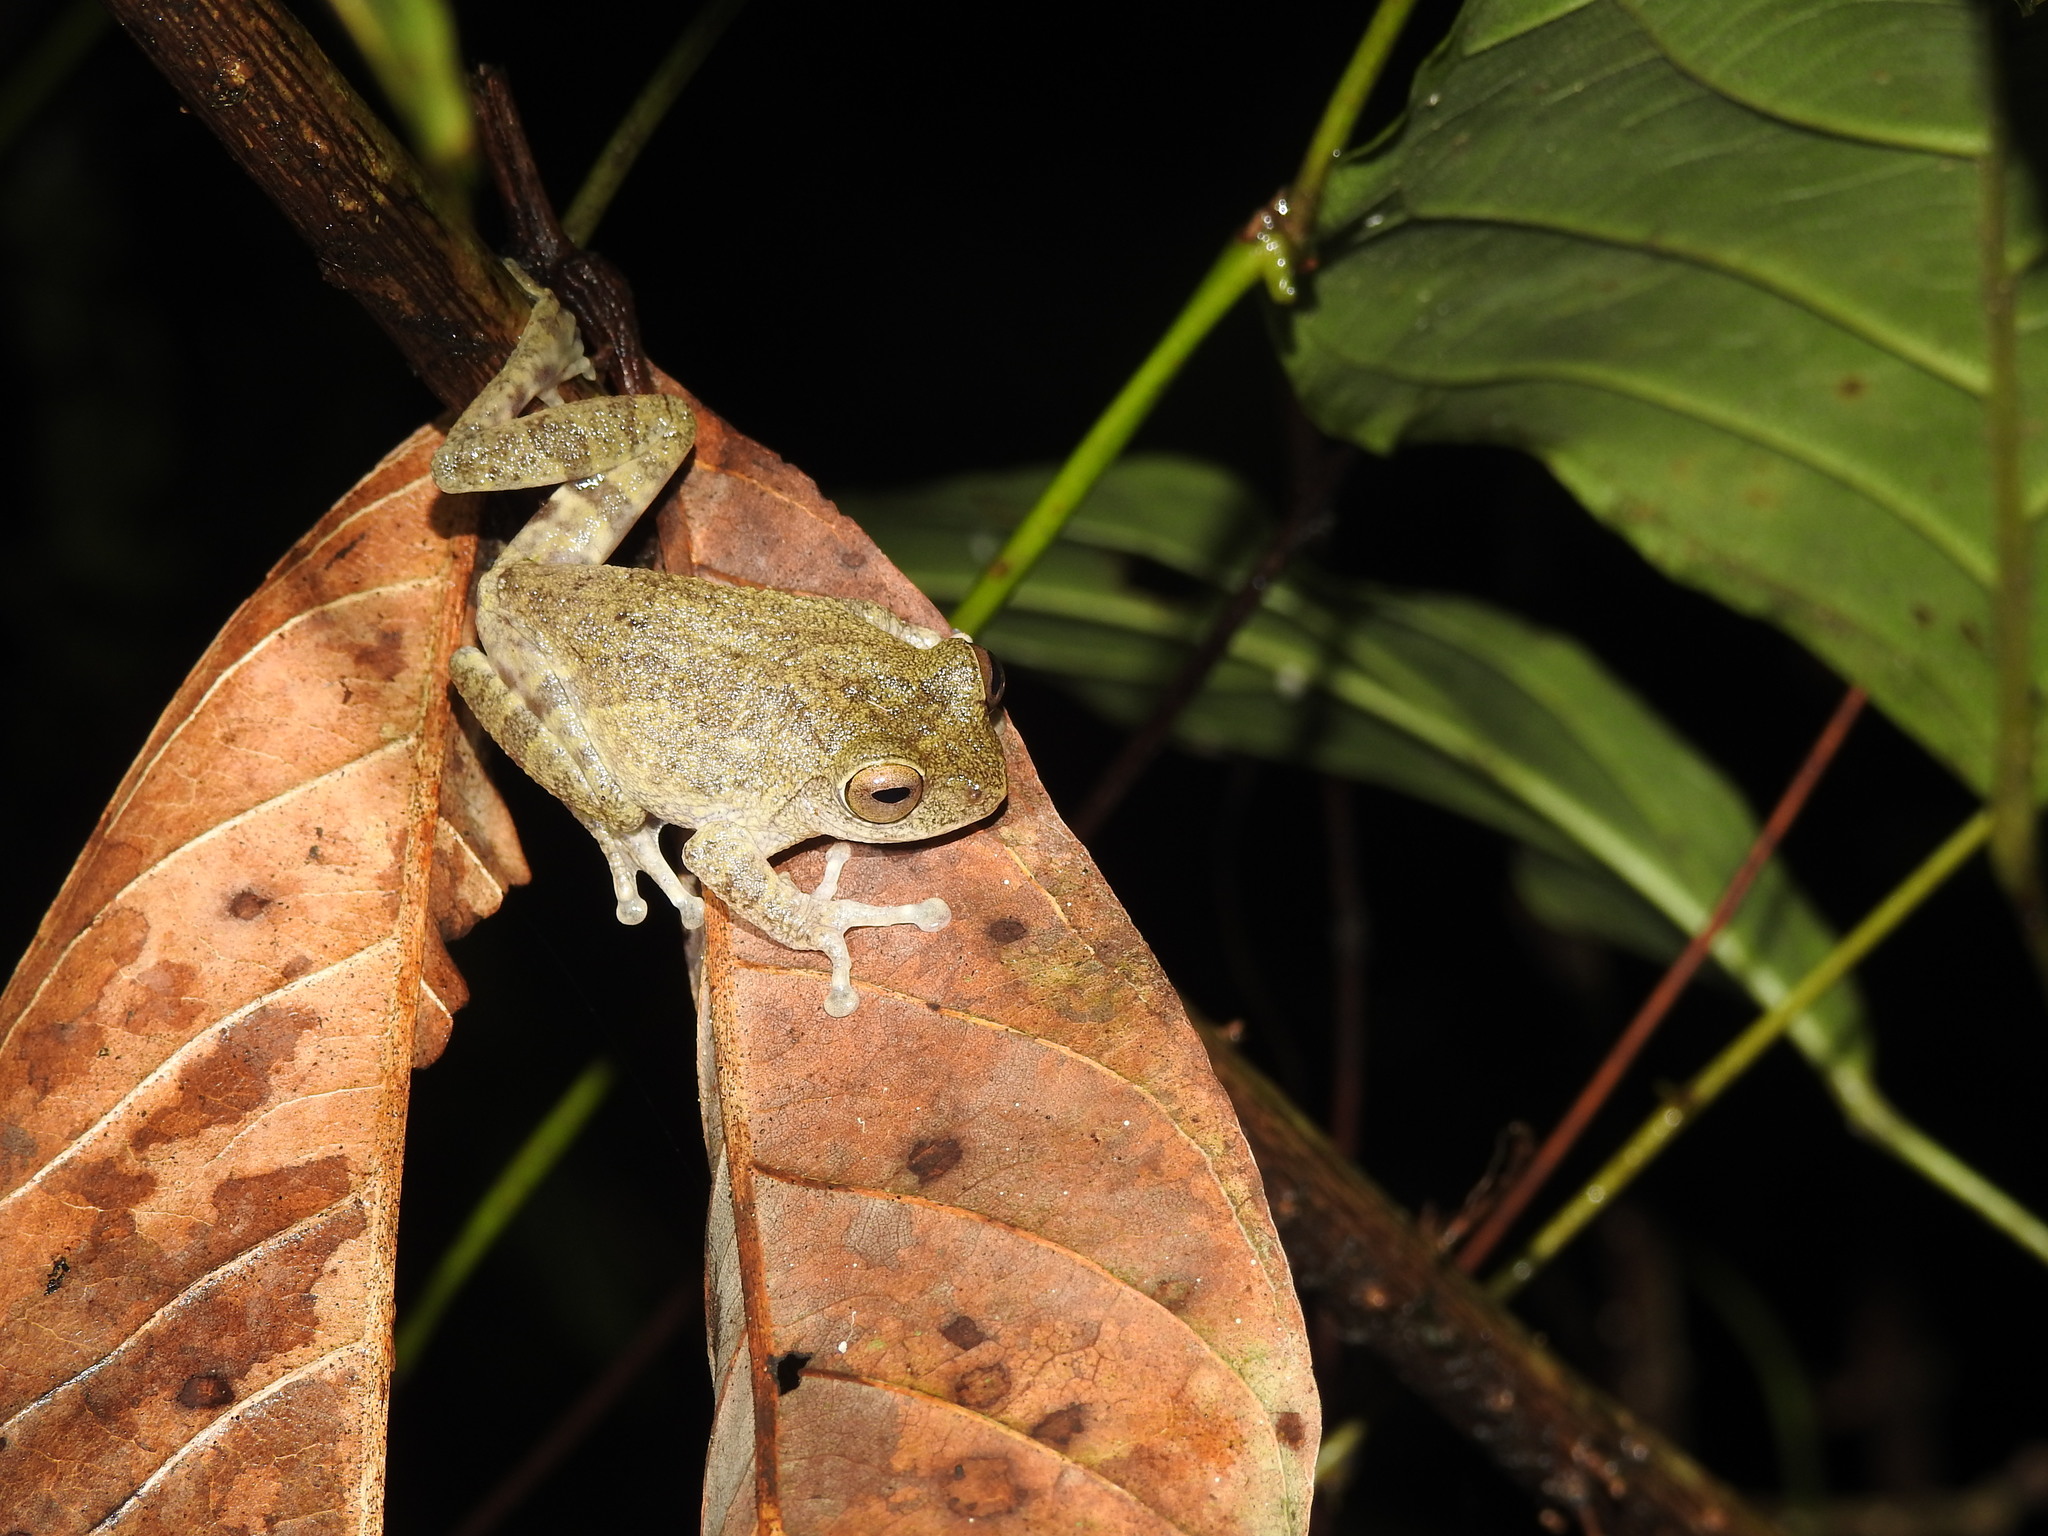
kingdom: Animalia
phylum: Chordata
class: Amphibia
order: Anura
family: Rhacophoridae
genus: Raorchestes
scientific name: Raorchestes hassanensis
